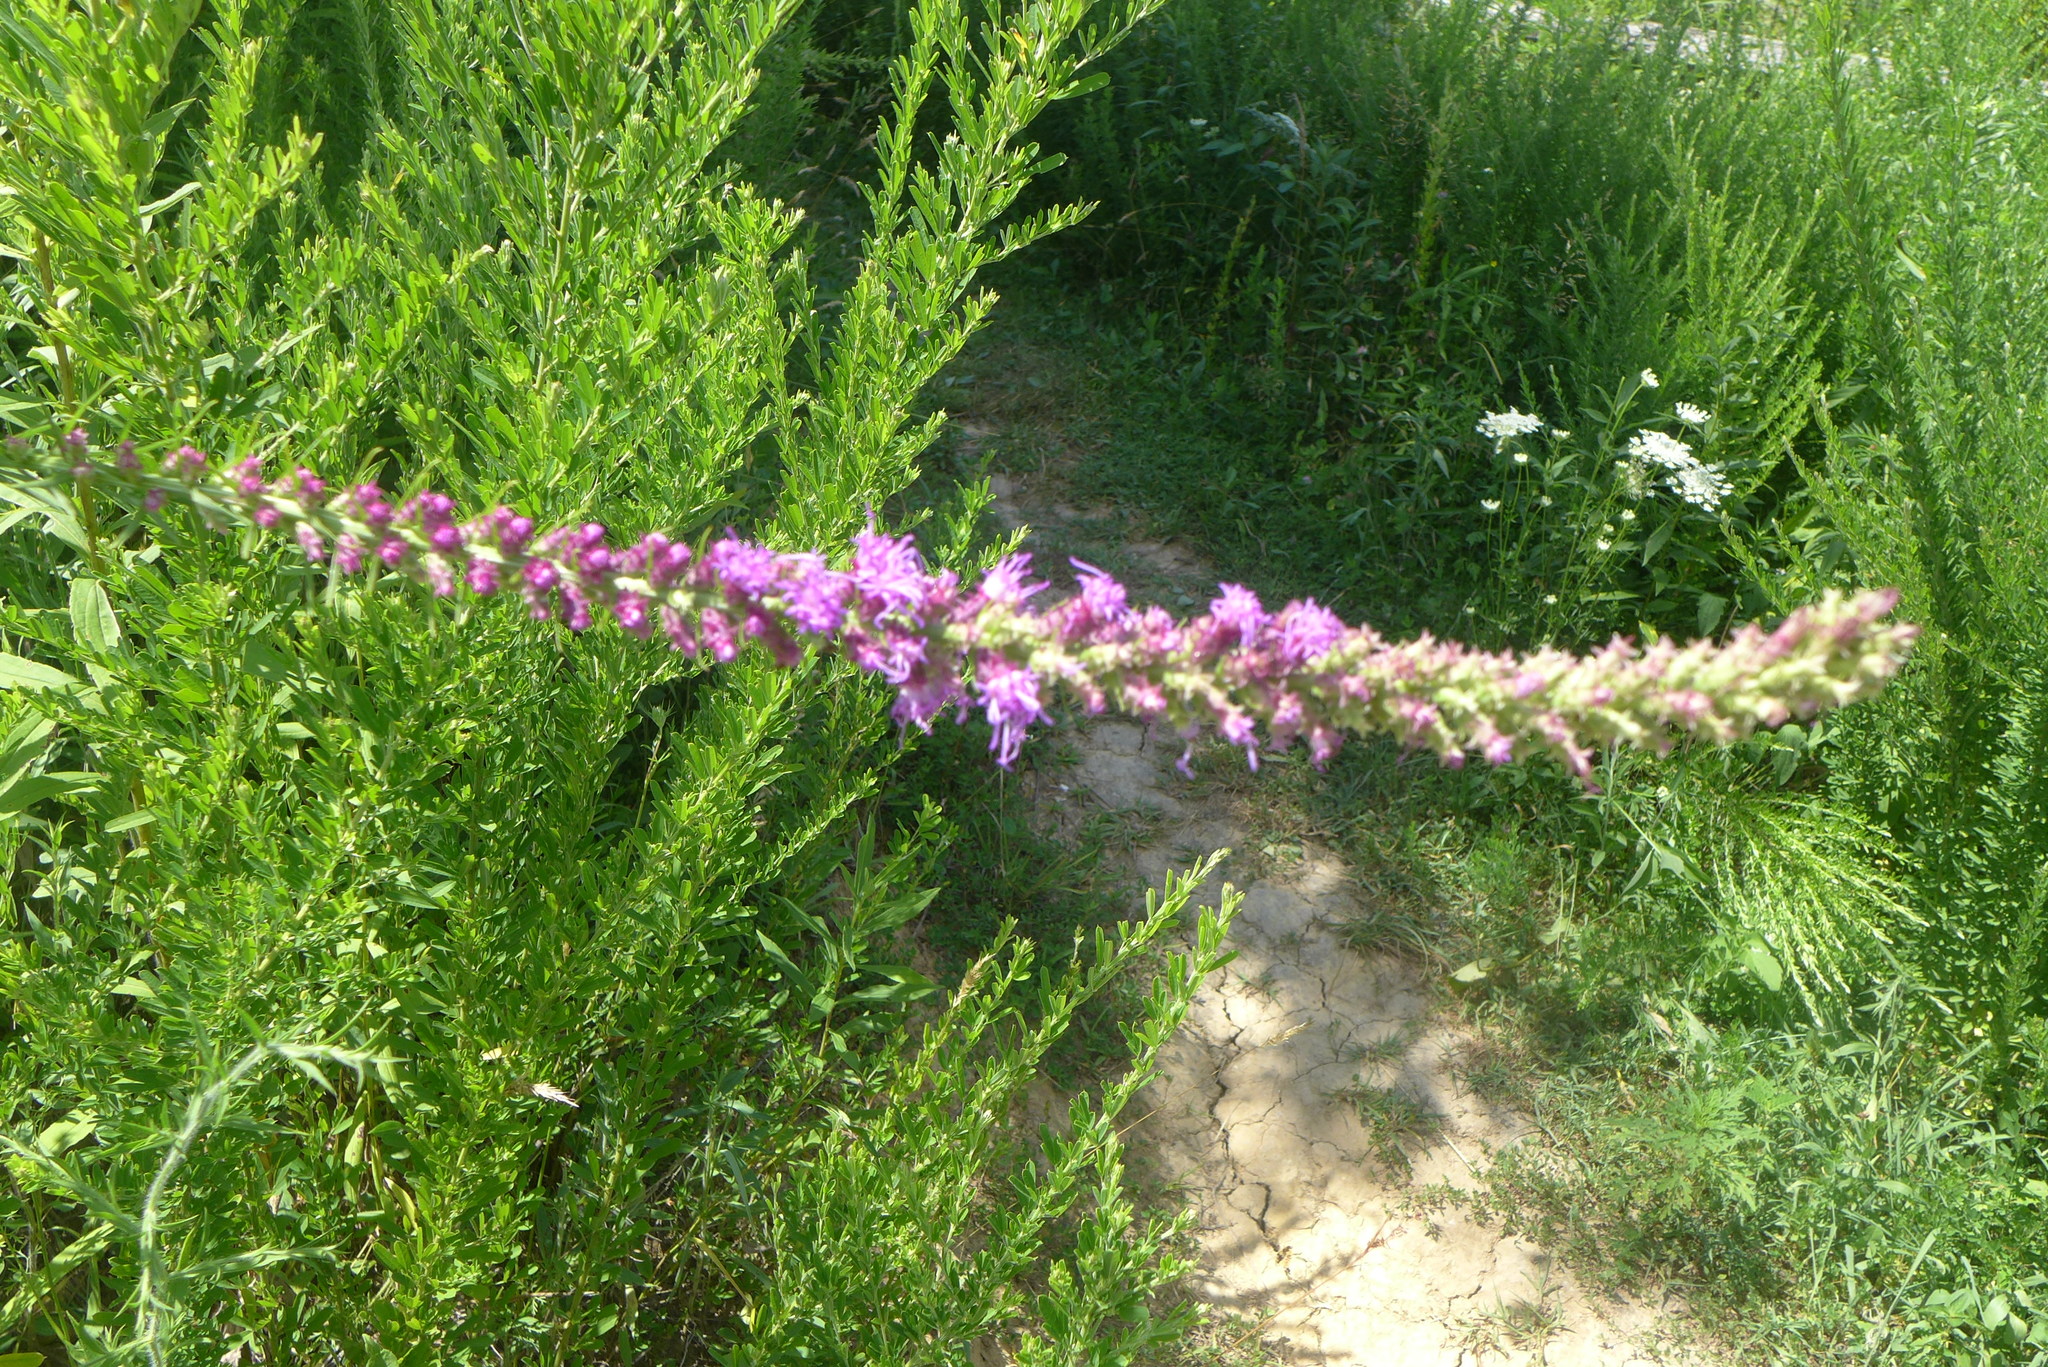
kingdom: Plantae
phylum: Tracheophyta
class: Magnoliopsida
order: Asterales
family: Asteraceae
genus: Liatris
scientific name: Liatris pycnostachya
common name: Cattail gayfeather
